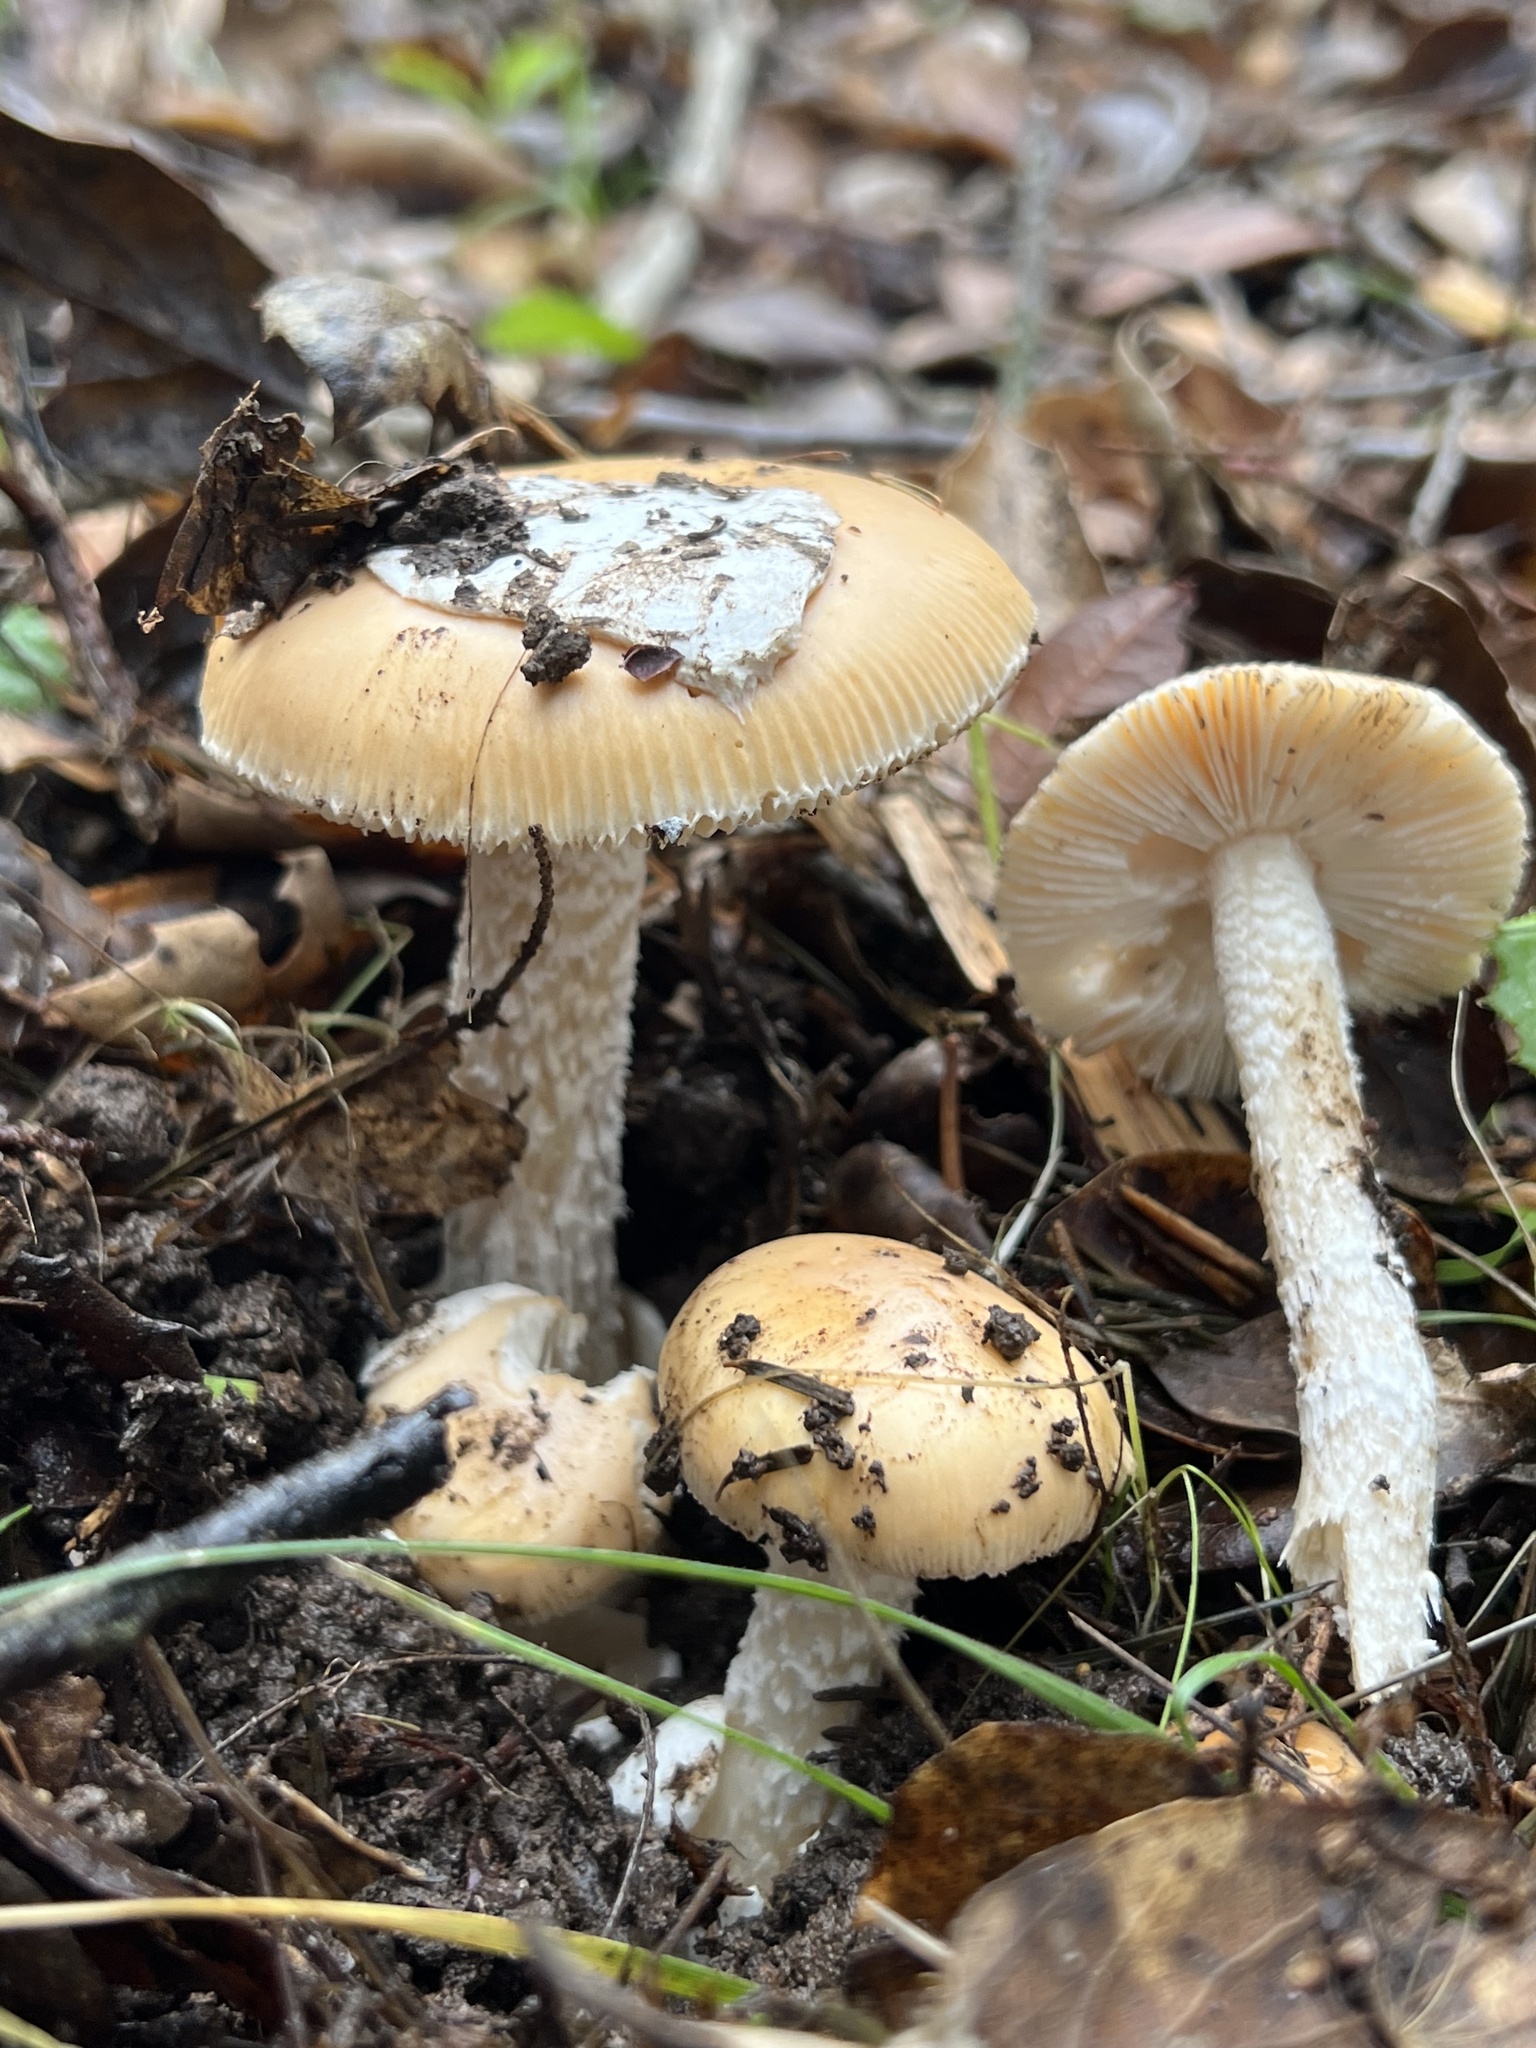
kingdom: Fungi
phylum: Basidiomycota
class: Agaricomycetes
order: Agaricales
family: Amanitaceae
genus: Amanita
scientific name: Amanita velosa
